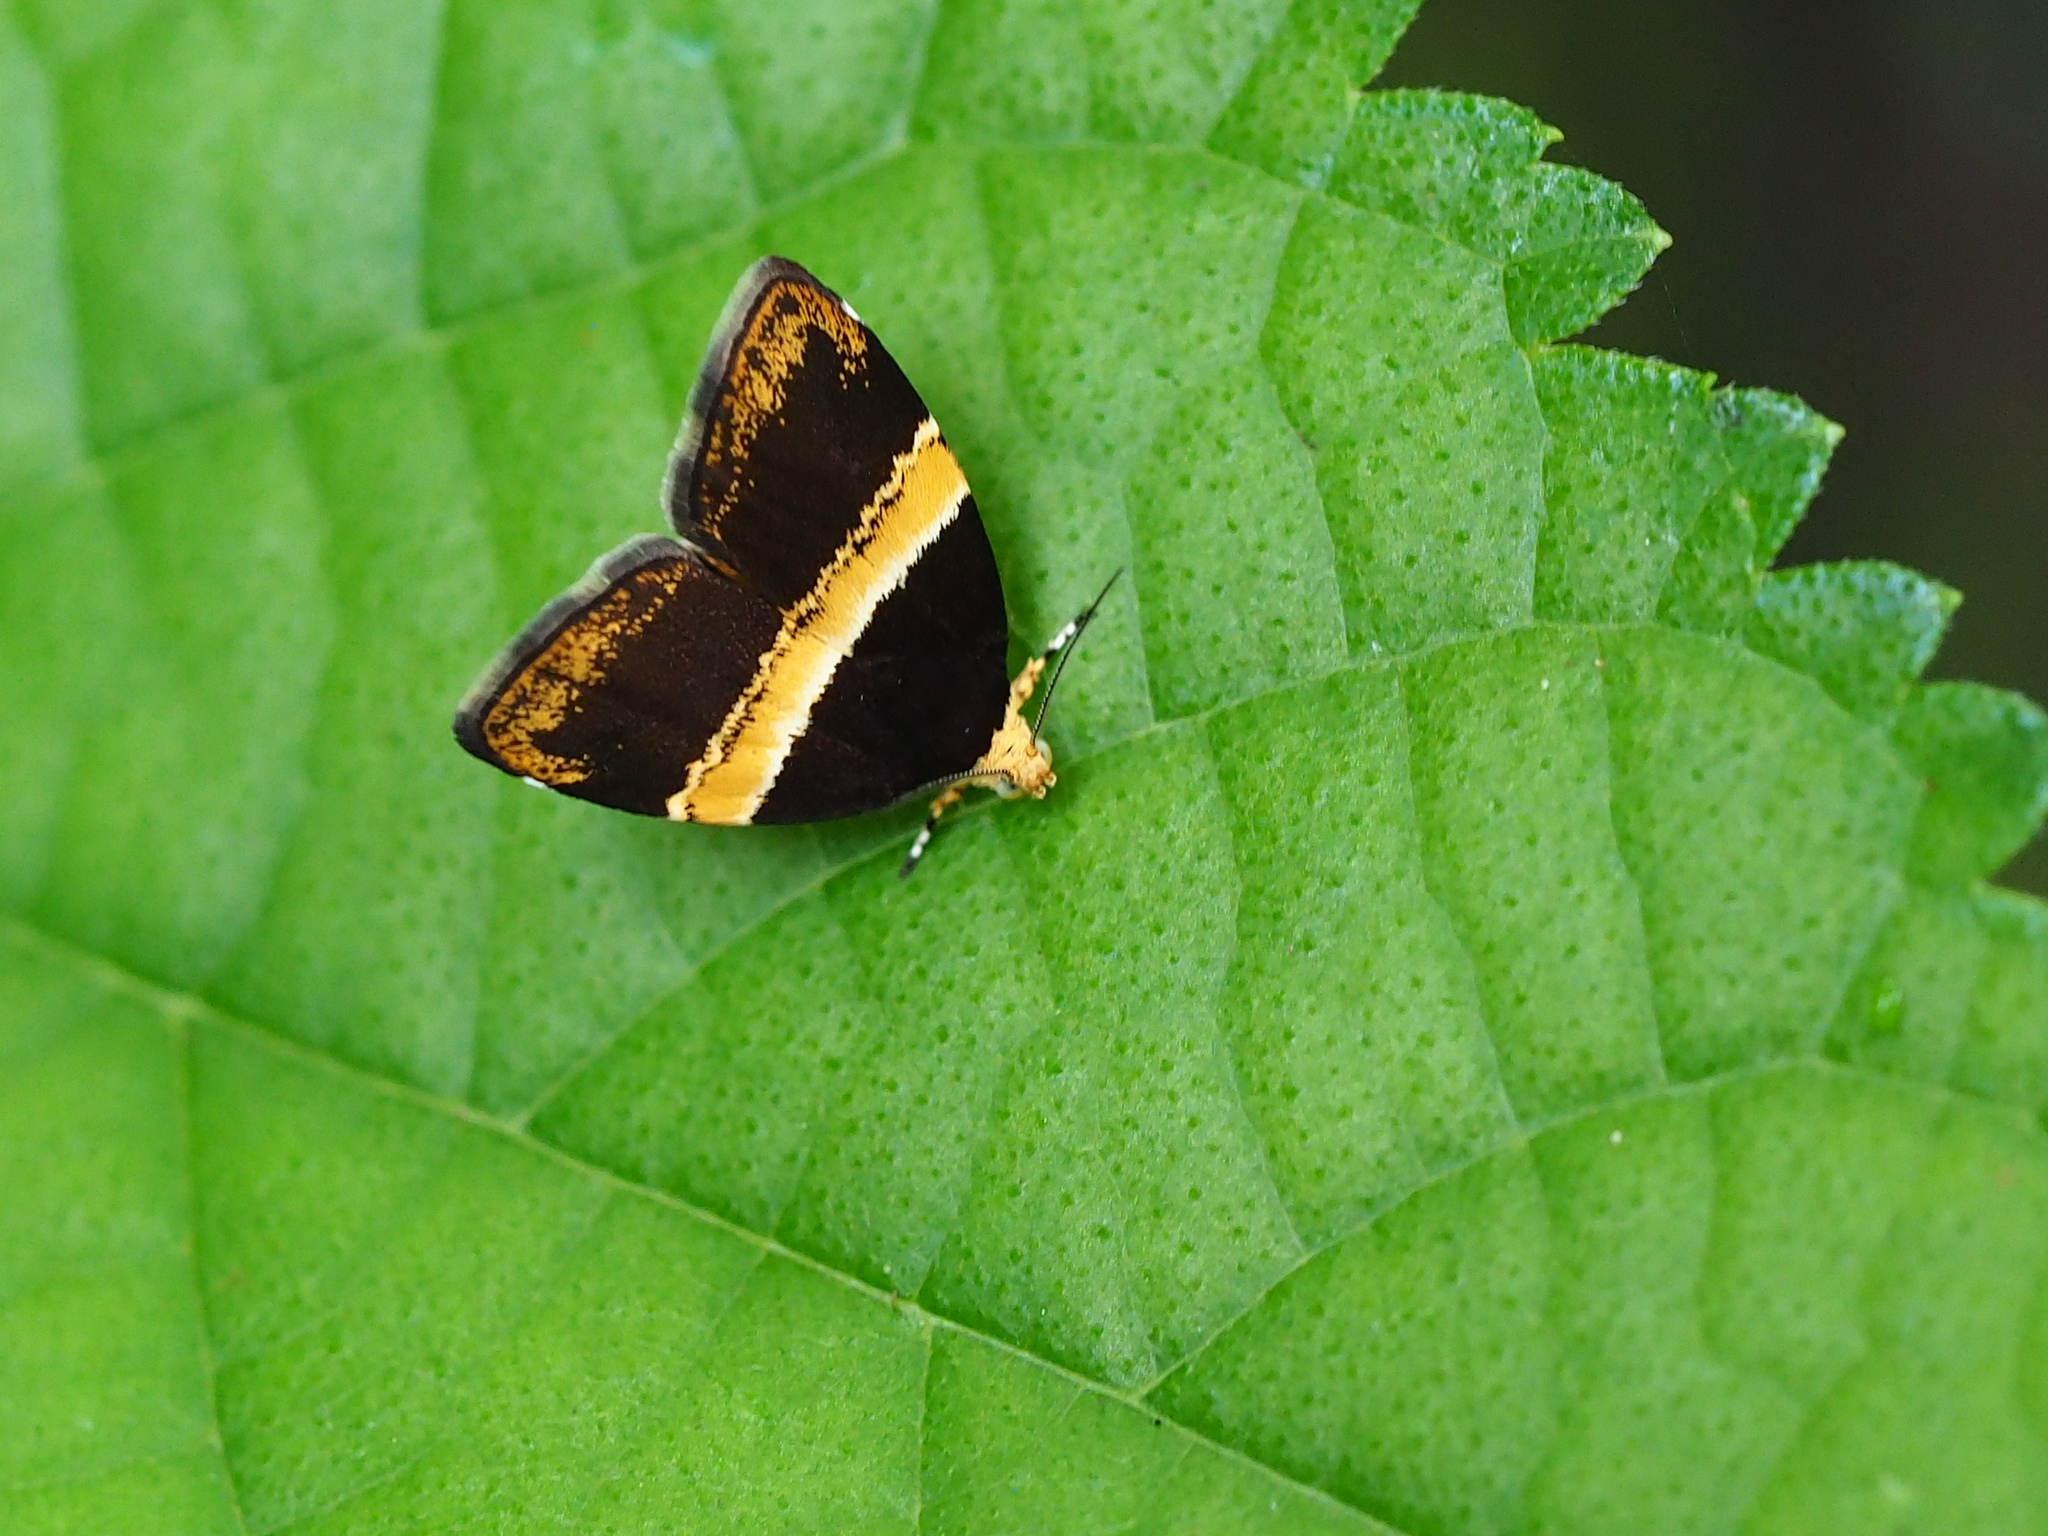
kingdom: Animalia
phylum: Arthropoda
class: Insecta
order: Lepidoptera
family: Choreutidae
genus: Choreutis
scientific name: Choreutis basalis
